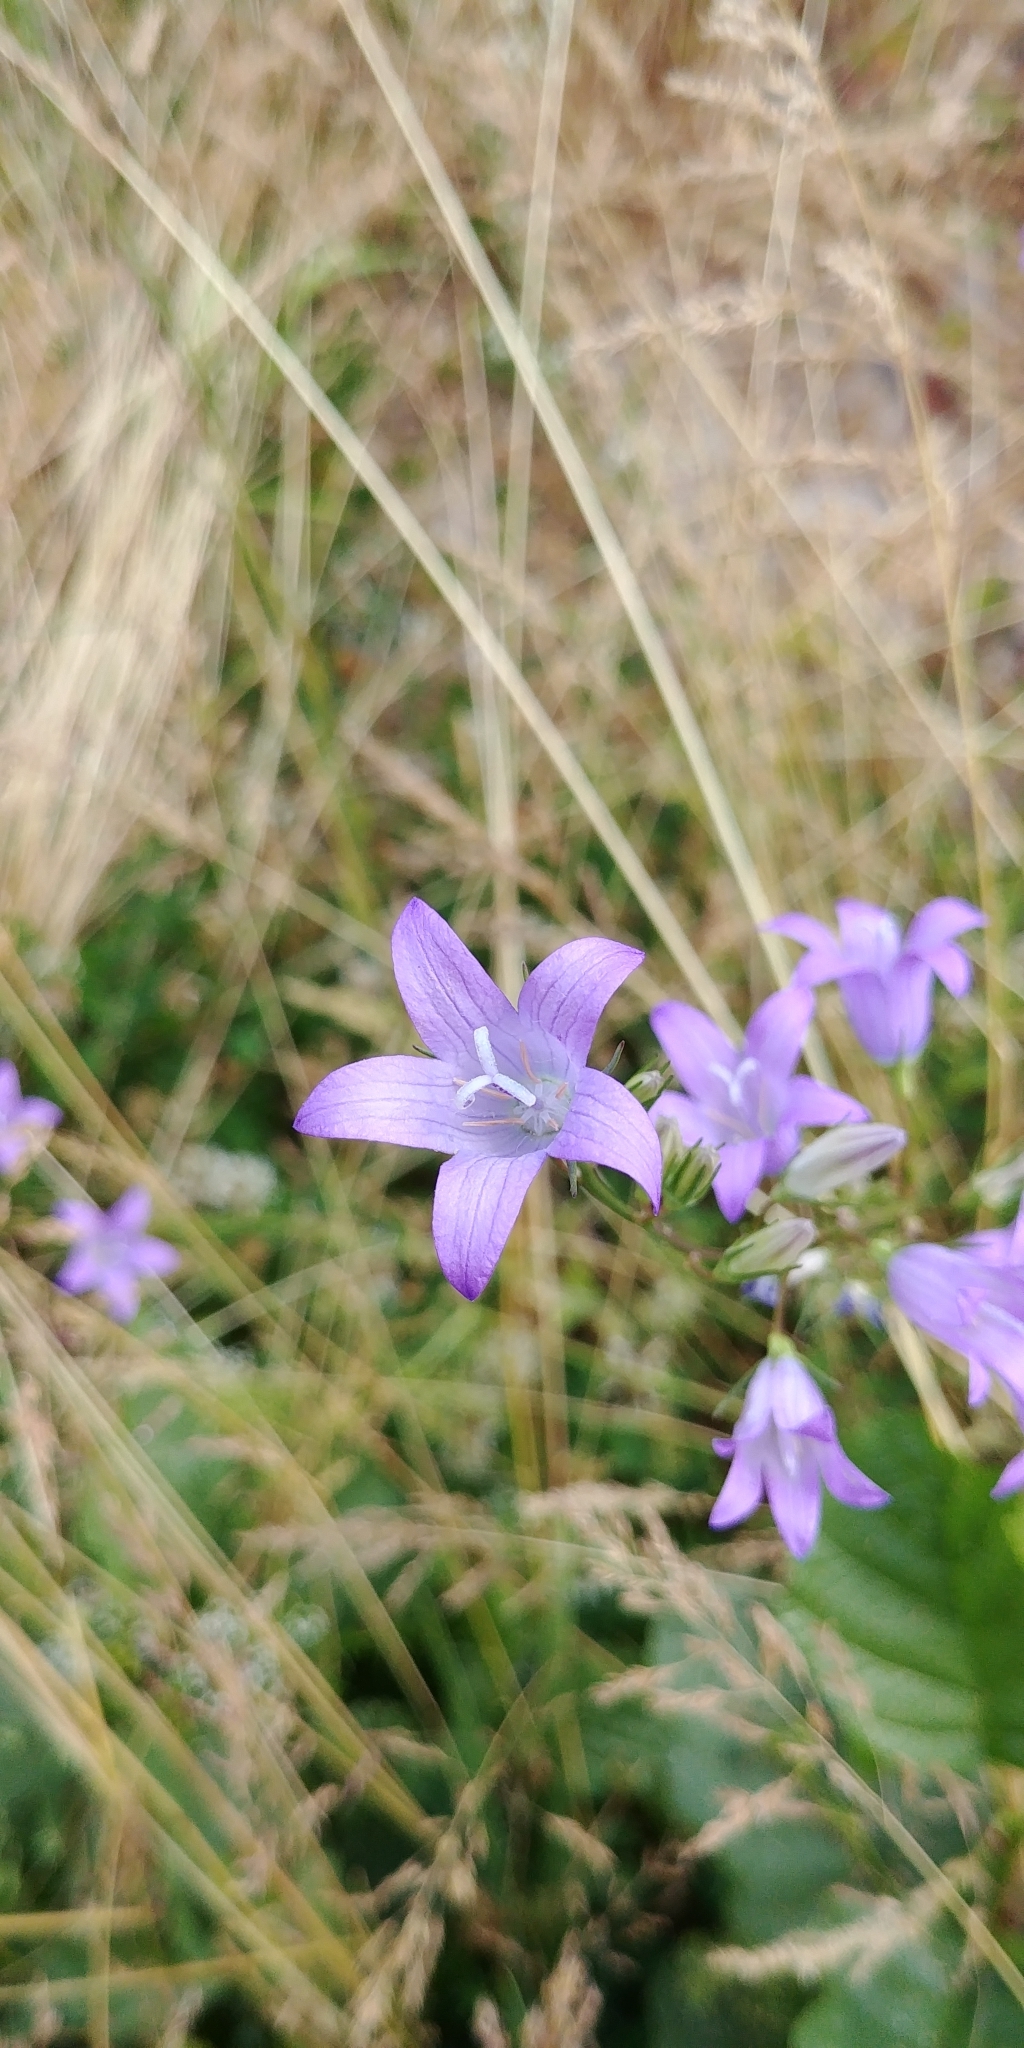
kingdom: Plantae
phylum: Tracheophyta
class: Magnoliopsida
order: Asterales
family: Campanulaceae
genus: Campanula
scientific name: Campanula rapunculus
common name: Rampion bellflower
